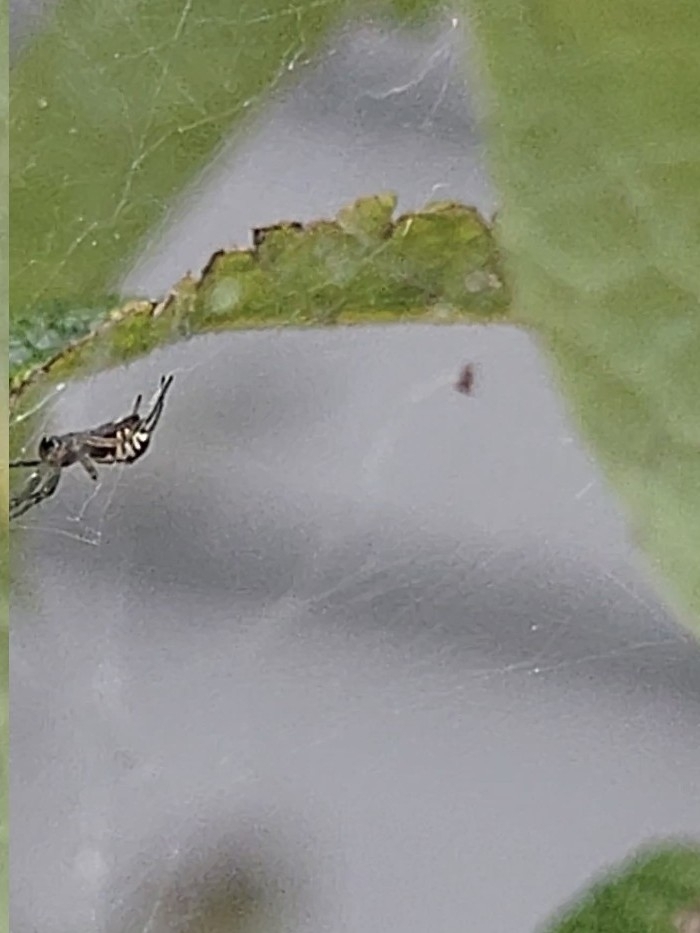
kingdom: Animalia
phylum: Arthropoda
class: Arachnida
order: Araneae
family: Linyphiidae
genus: Frontinella
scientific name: Frontinella pyramitela
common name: Bowl-and-doily spider
